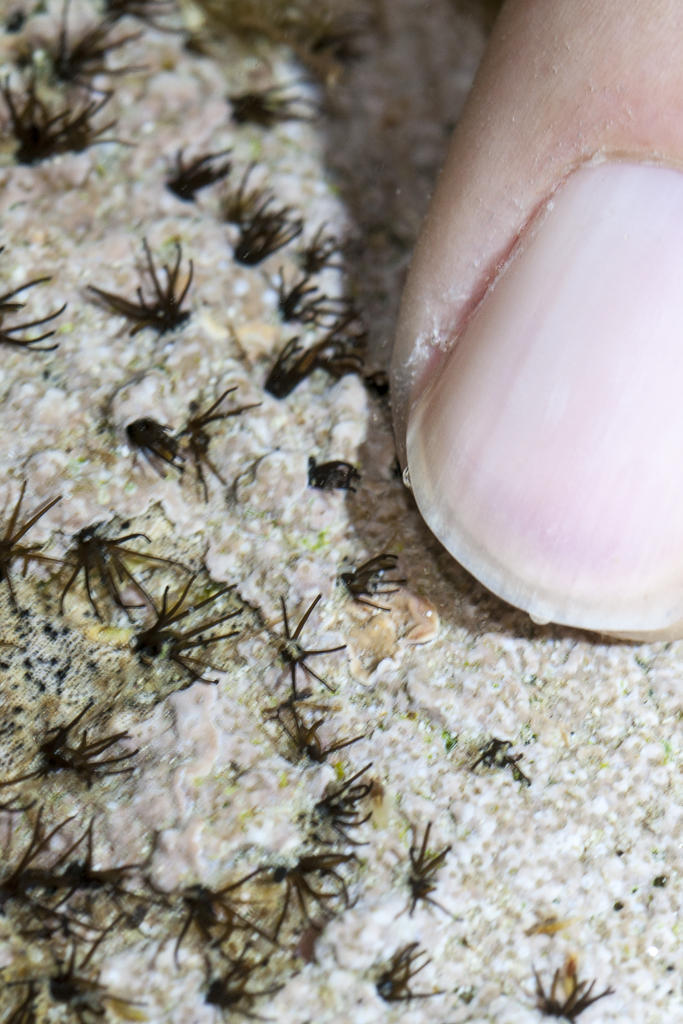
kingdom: Animalia
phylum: Annelida
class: Polychaeta
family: Cirratulidae
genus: Dodecaceria
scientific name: Dodecaceria pulchra
